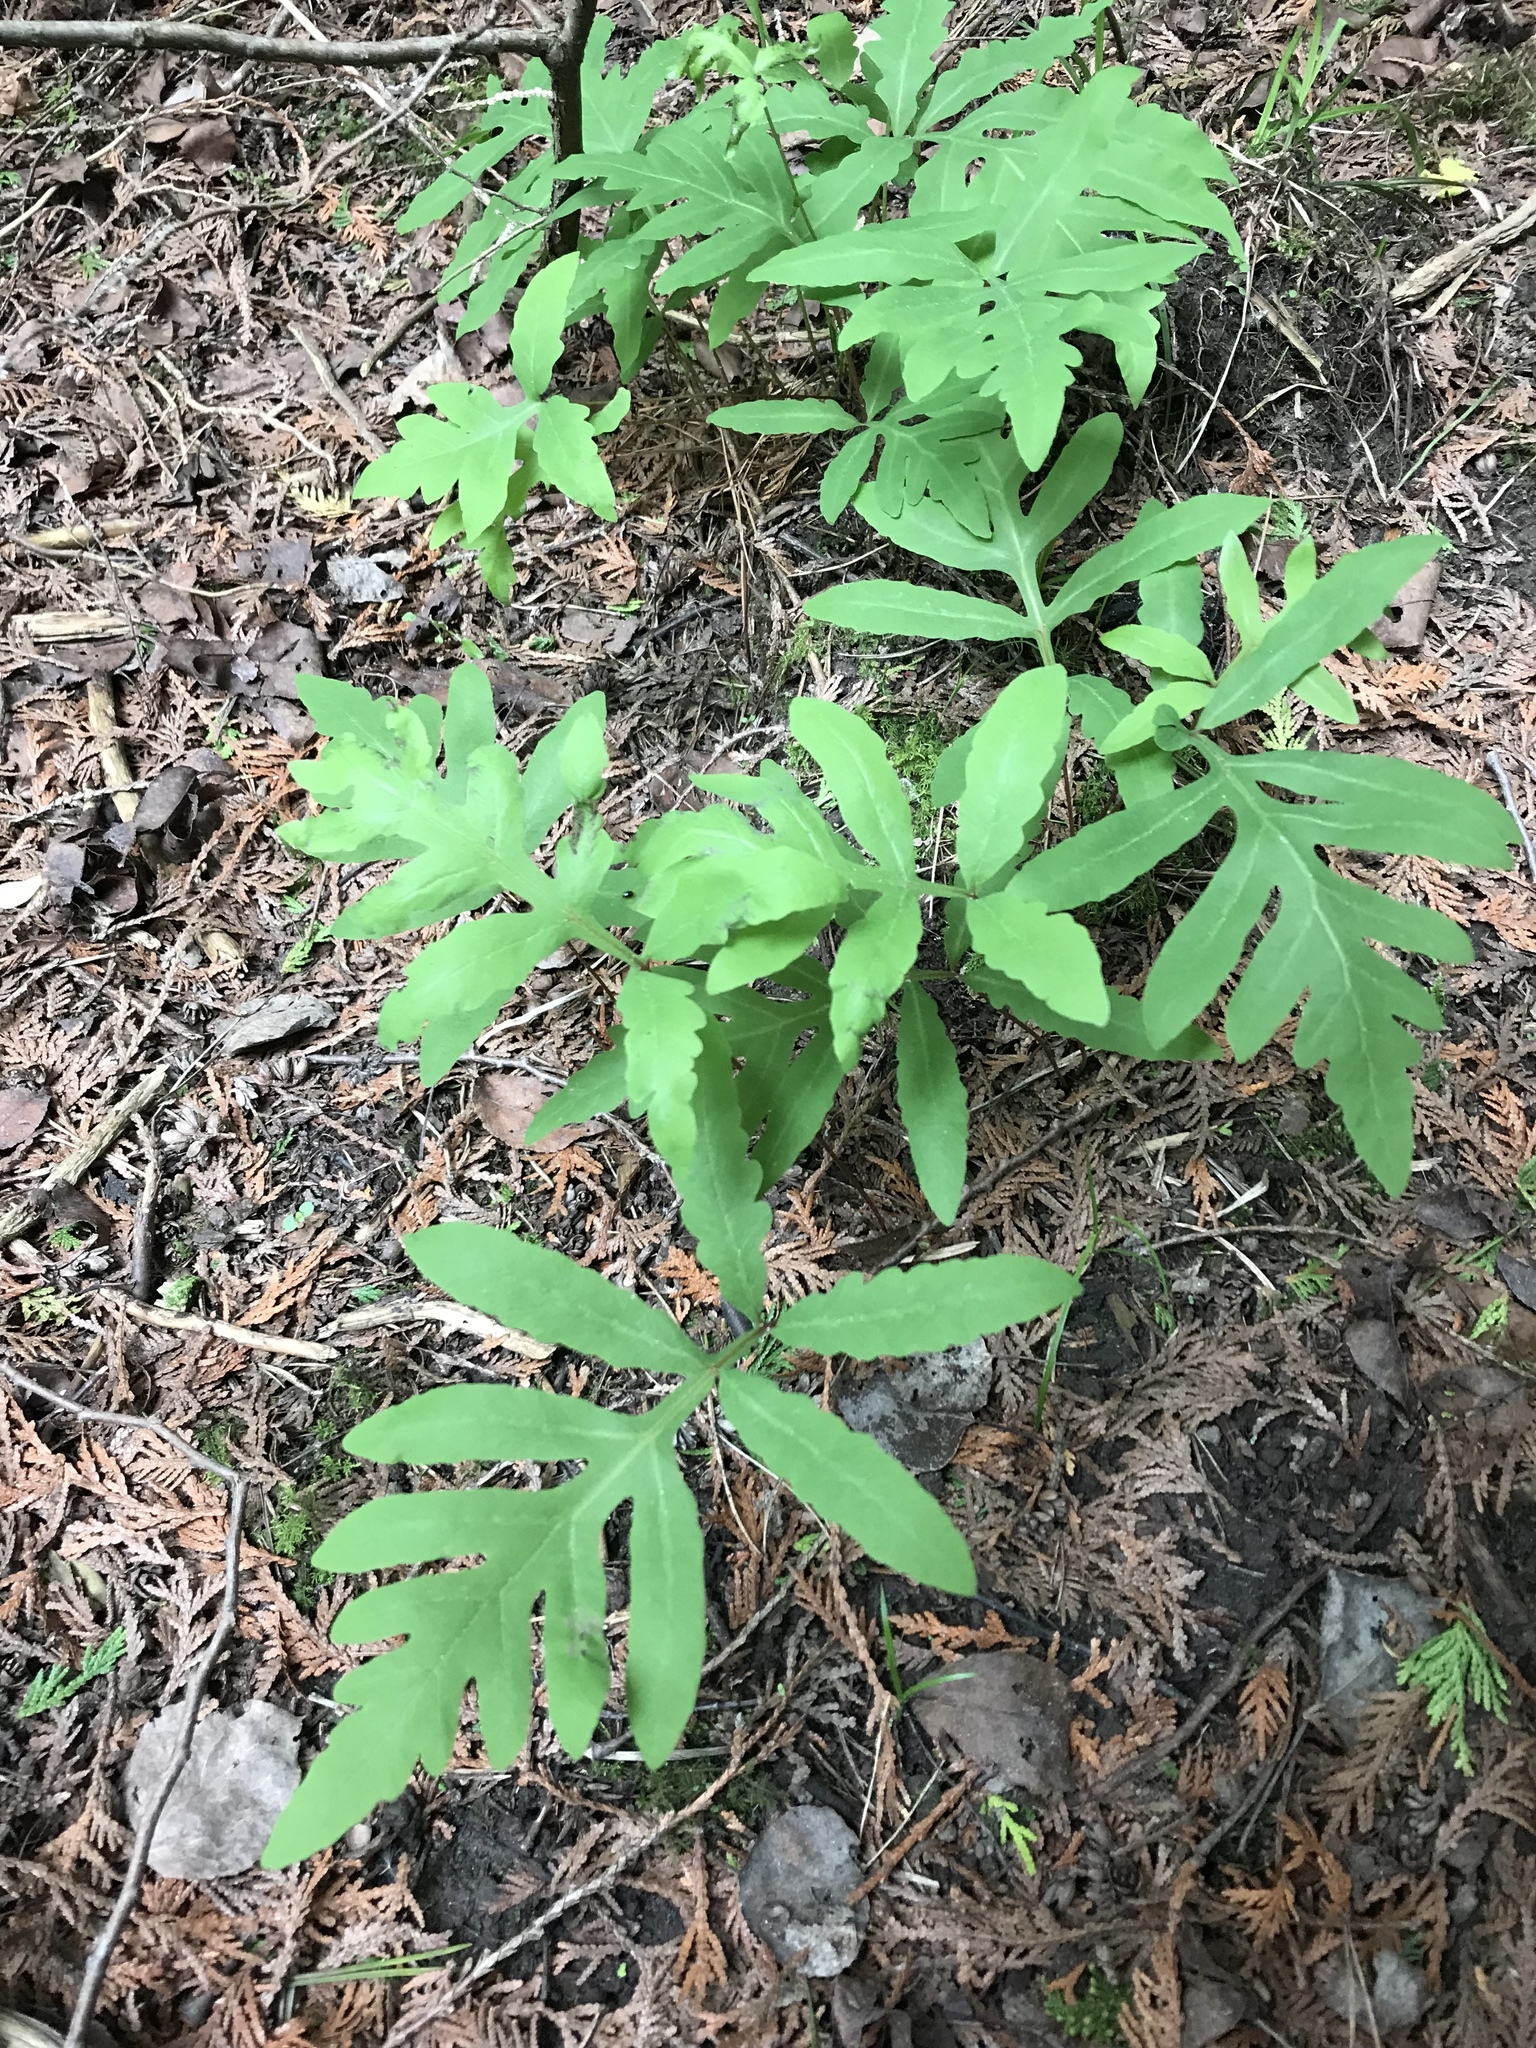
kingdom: Plantae
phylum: Tracheophyta
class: Polypodiopsida
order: Polypodiales
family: Onocleaceae
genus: Onoclea
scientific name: Onoclea sensibilis
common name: Sensitive fern
